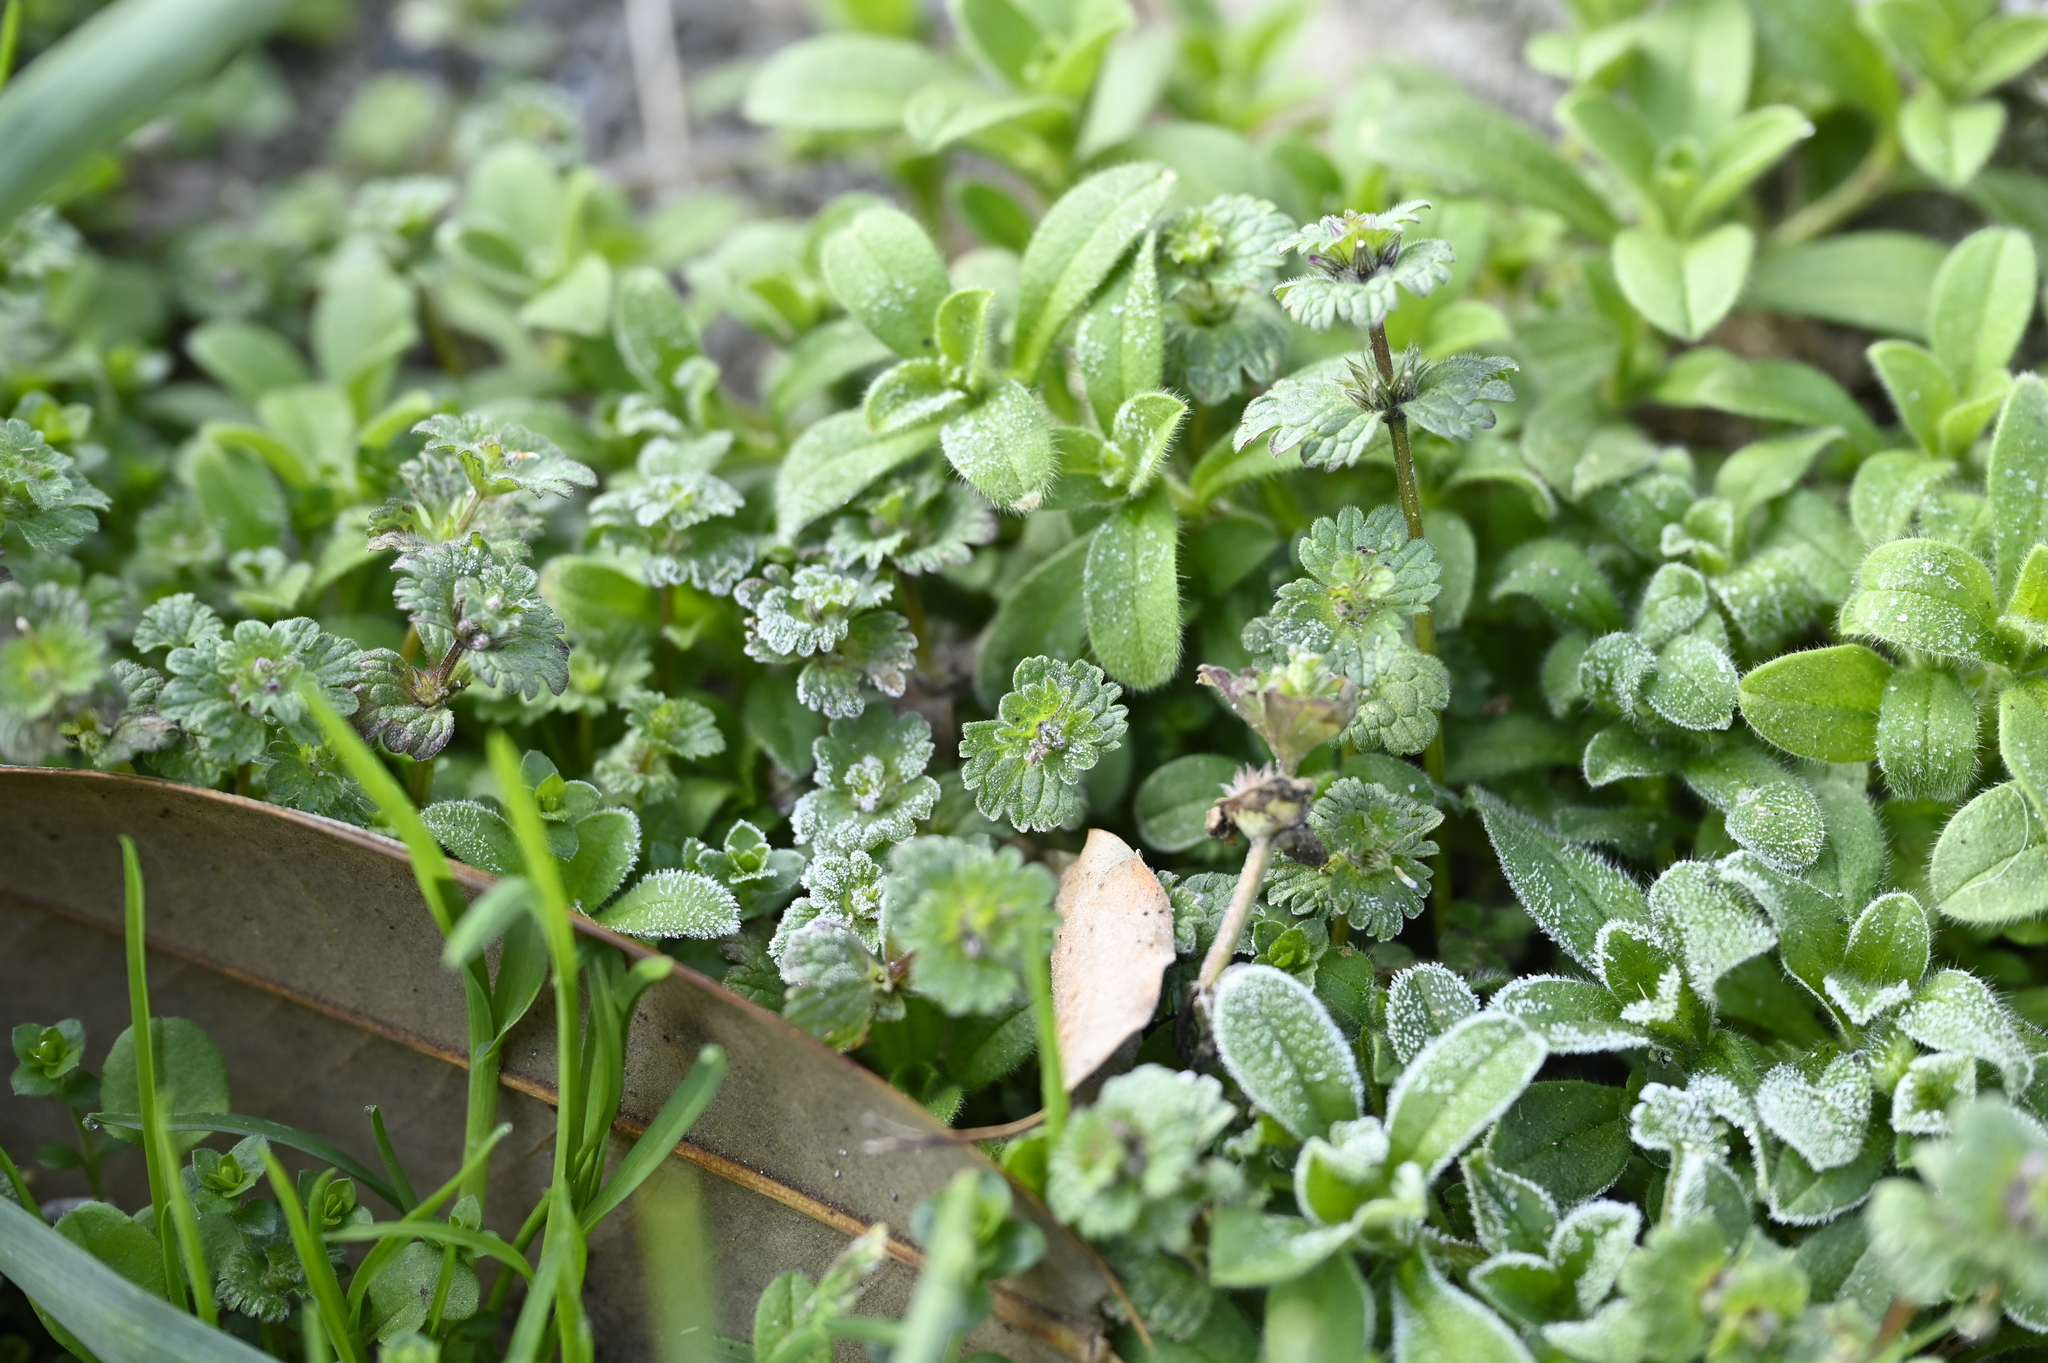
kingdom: Plantae
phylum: Tracheophyta
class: Magnoliopsida
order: Lamiales
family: Lamiaceae
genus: Lamium
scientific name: Lamium amplexicaule
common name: Henbit dead-nettle
